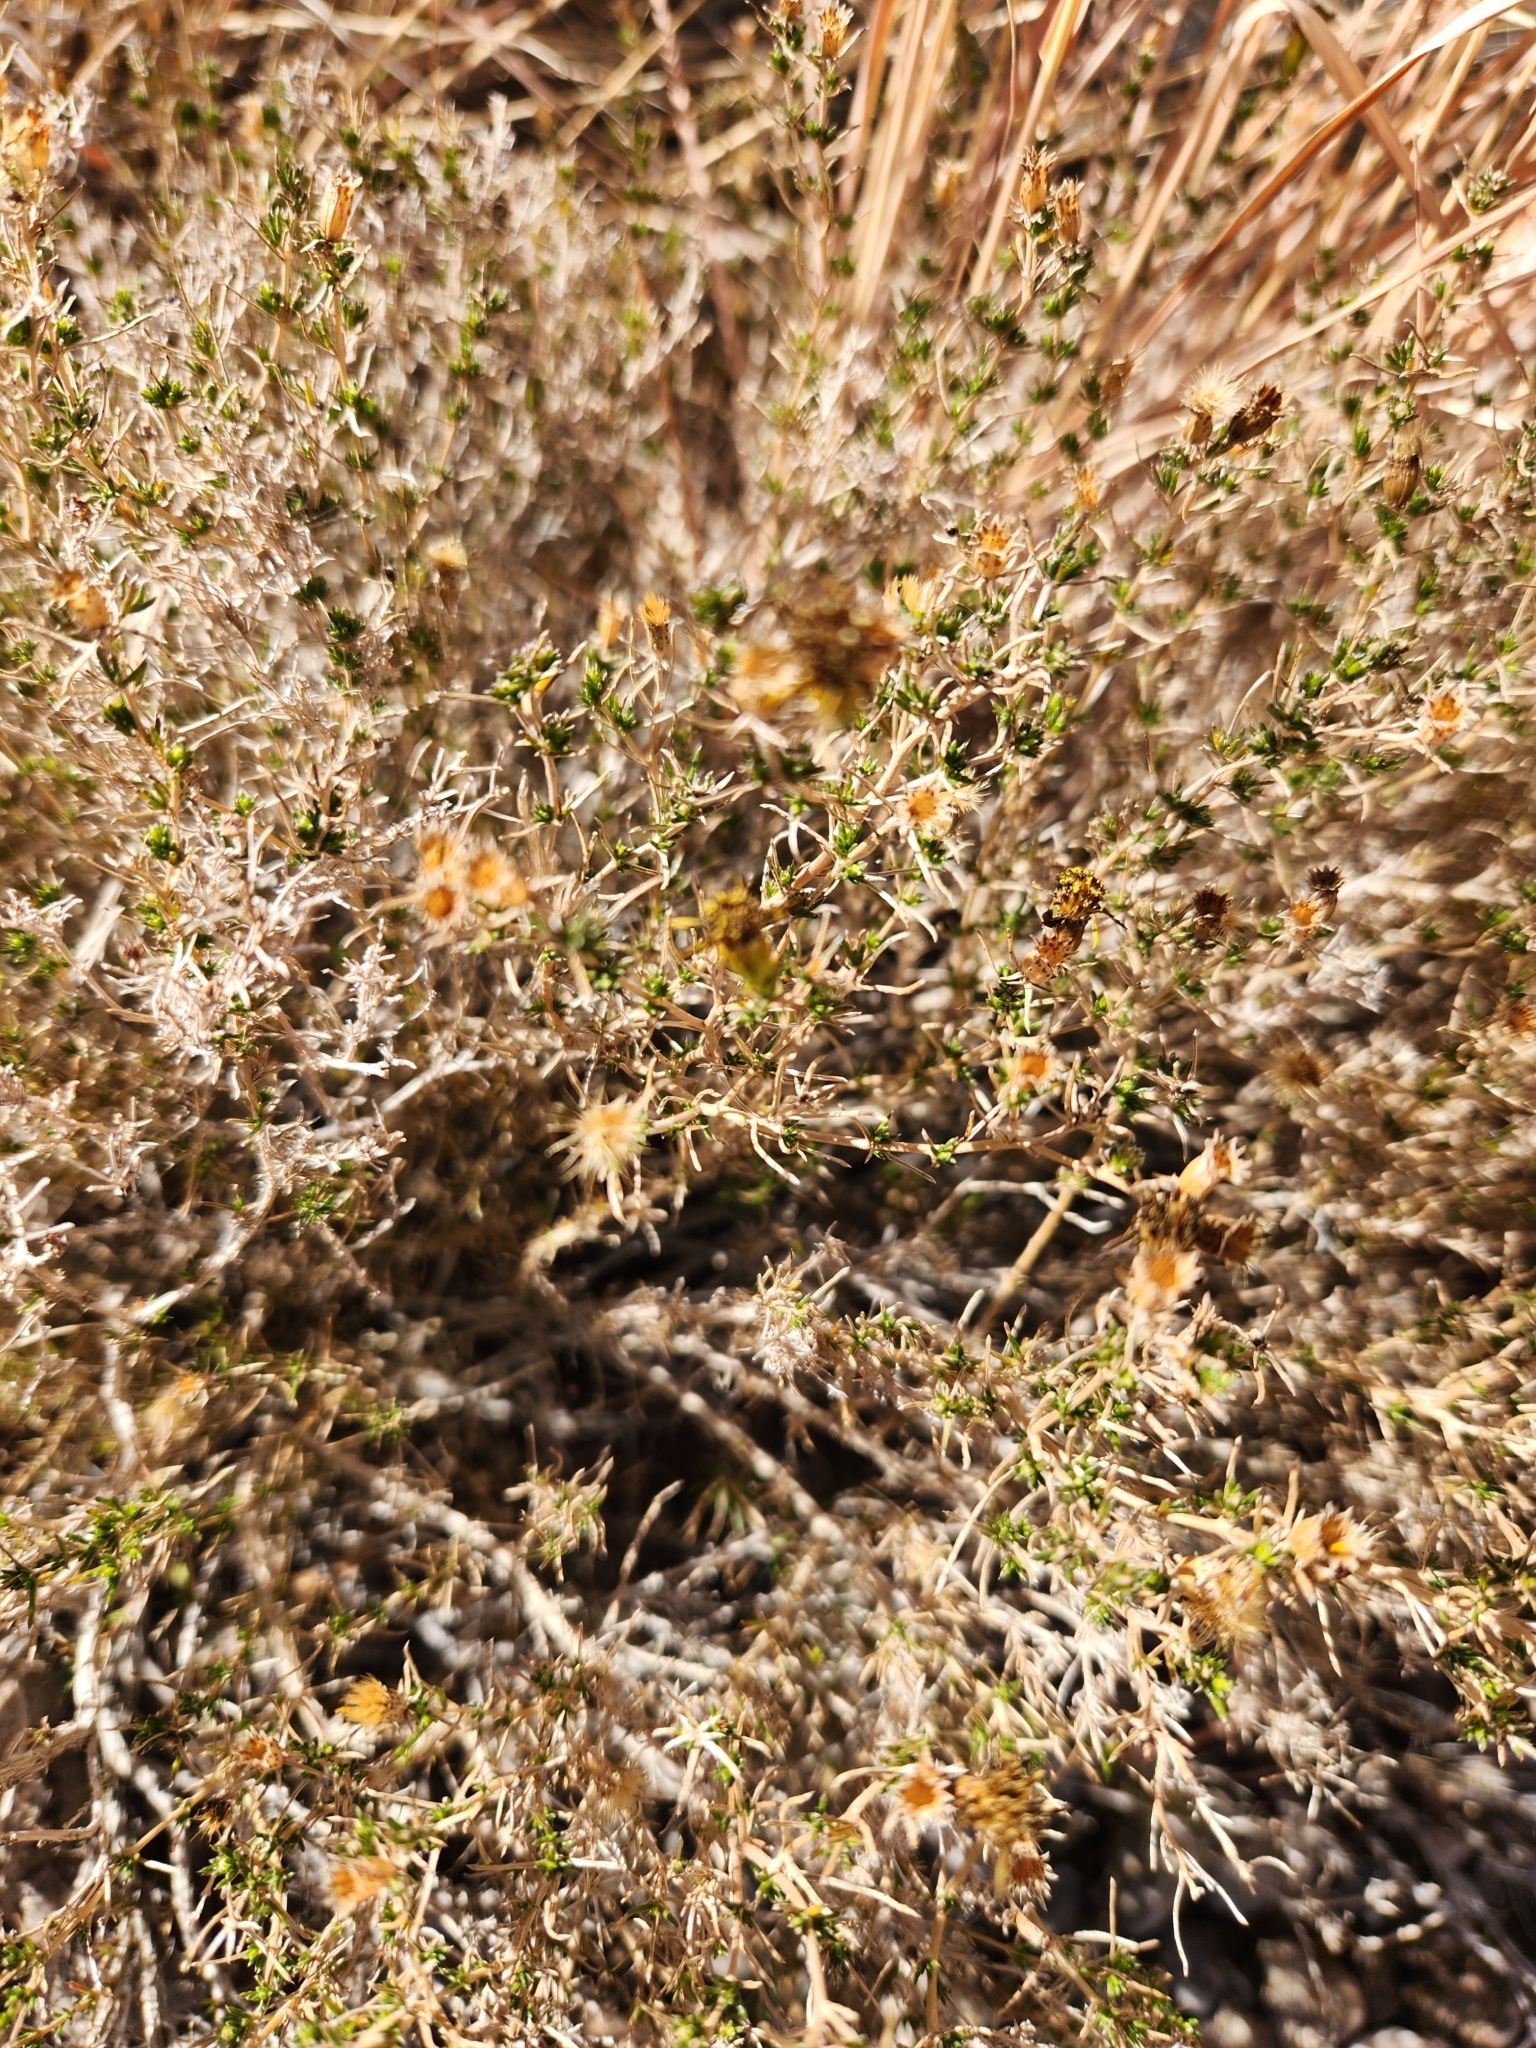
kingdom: Plantae
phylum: Tracheophyta
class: Magnoliopsida
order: Asterales
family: Asteraceae
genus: Thymophylla
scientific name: Thymophylla acerosa
